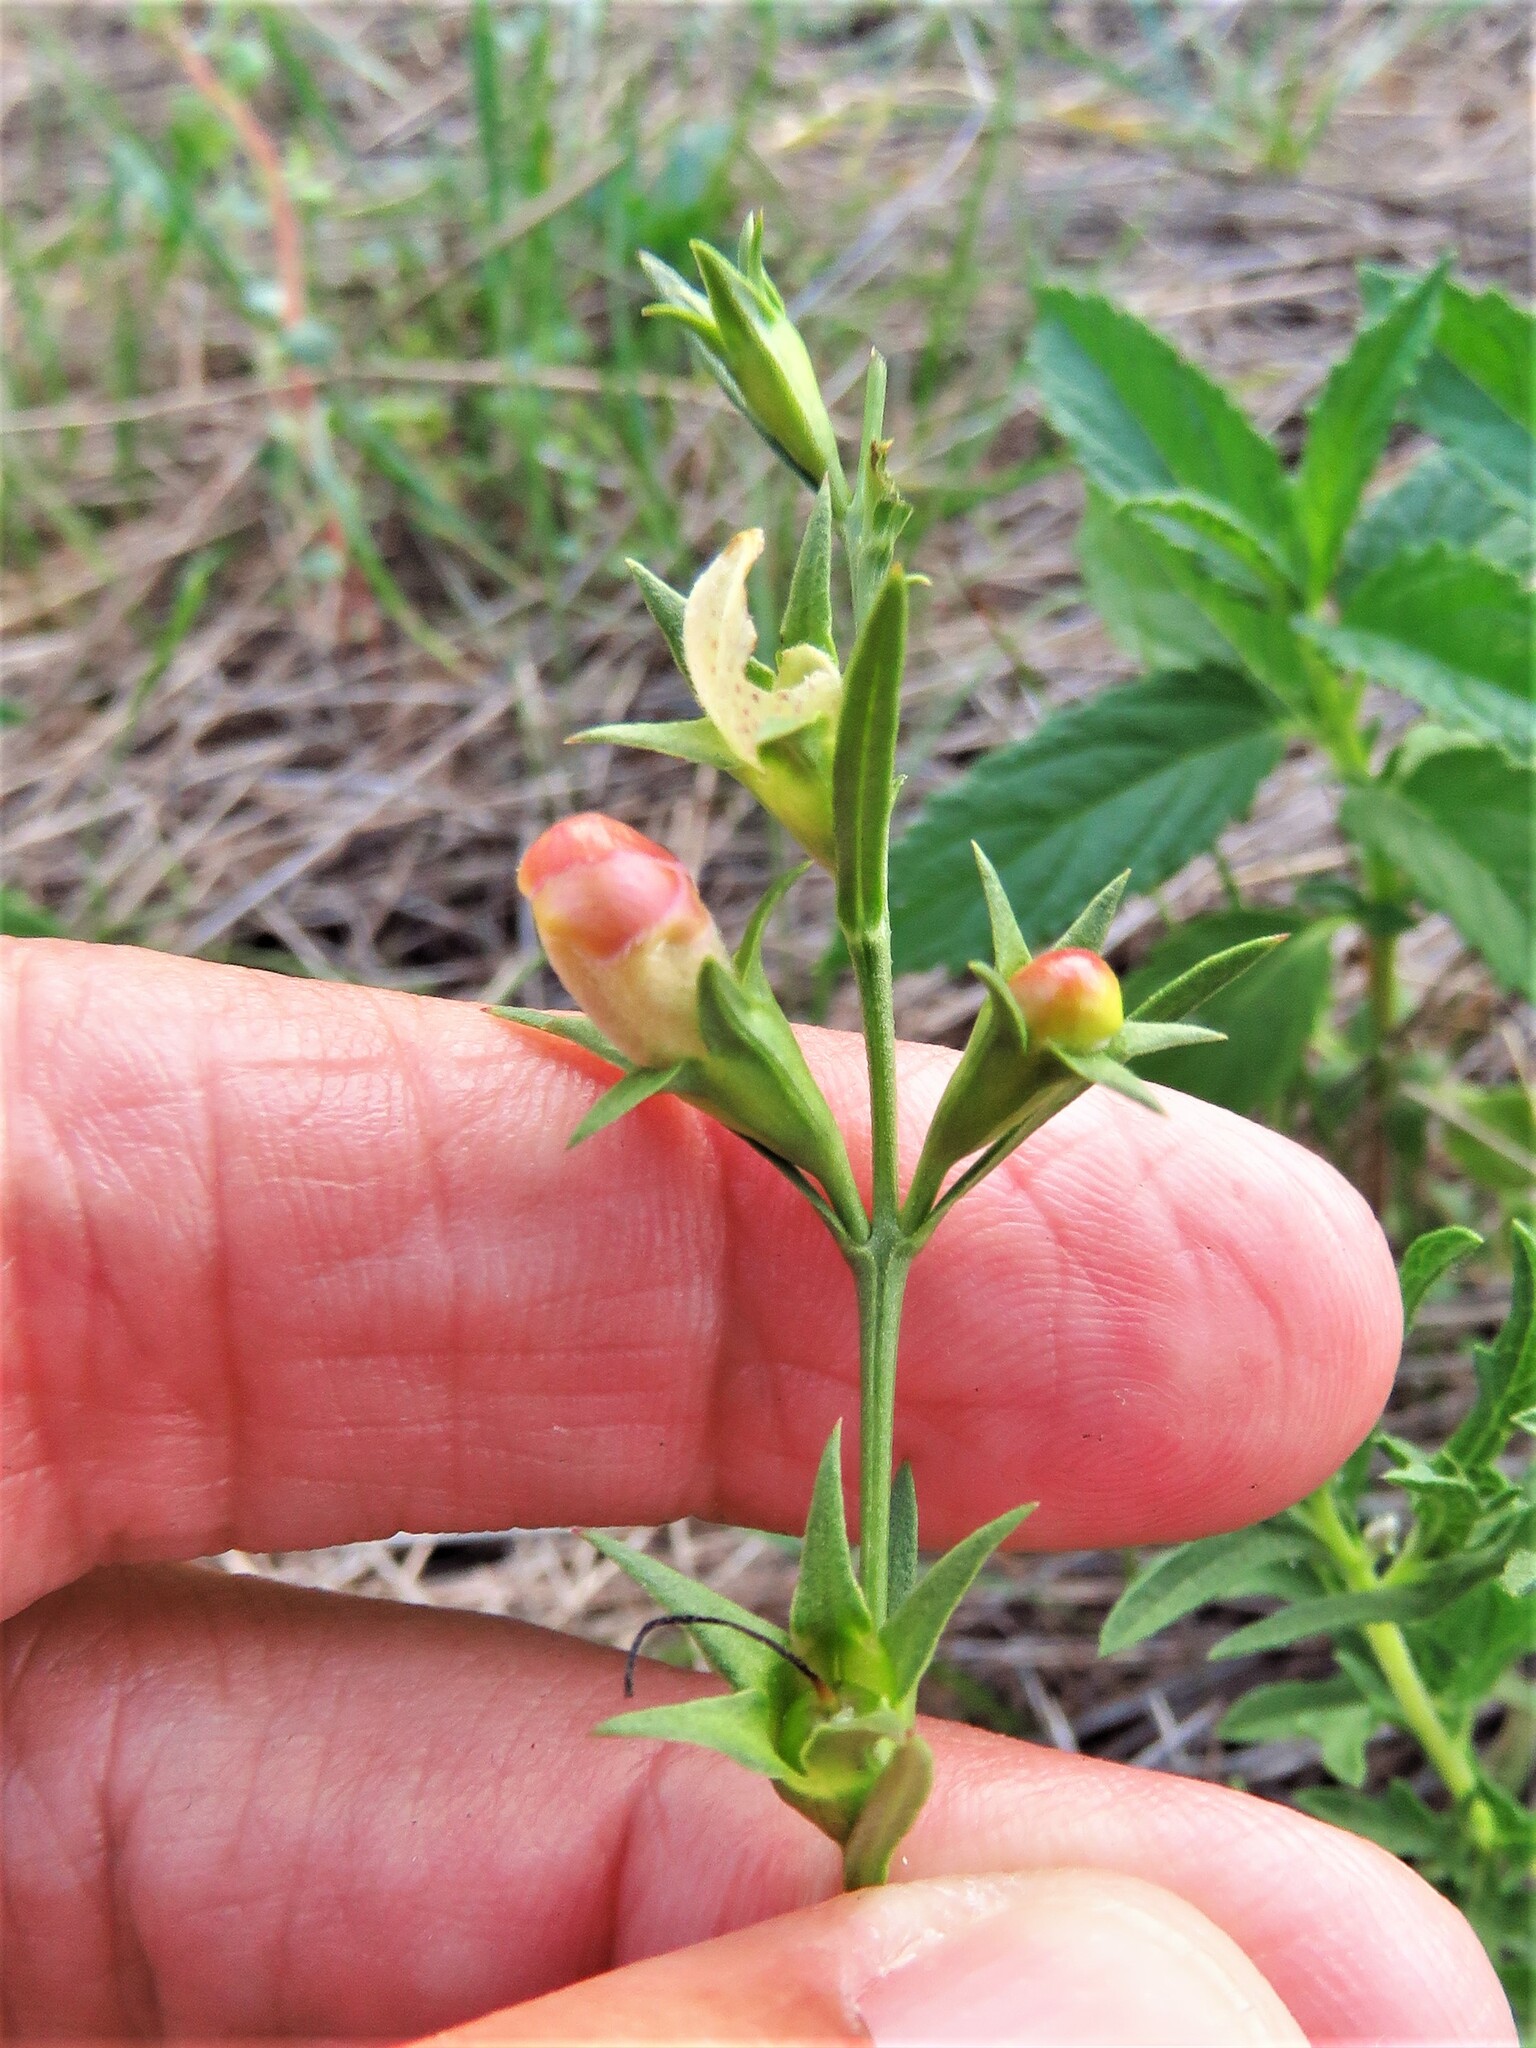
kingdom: Plantae
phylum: Tracheophyta
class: Magnoliopsida
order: Lamiales
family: Orobanchaceae
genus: Agalinis
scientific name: Agalinis heterophylla
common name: Prairie agalinis
